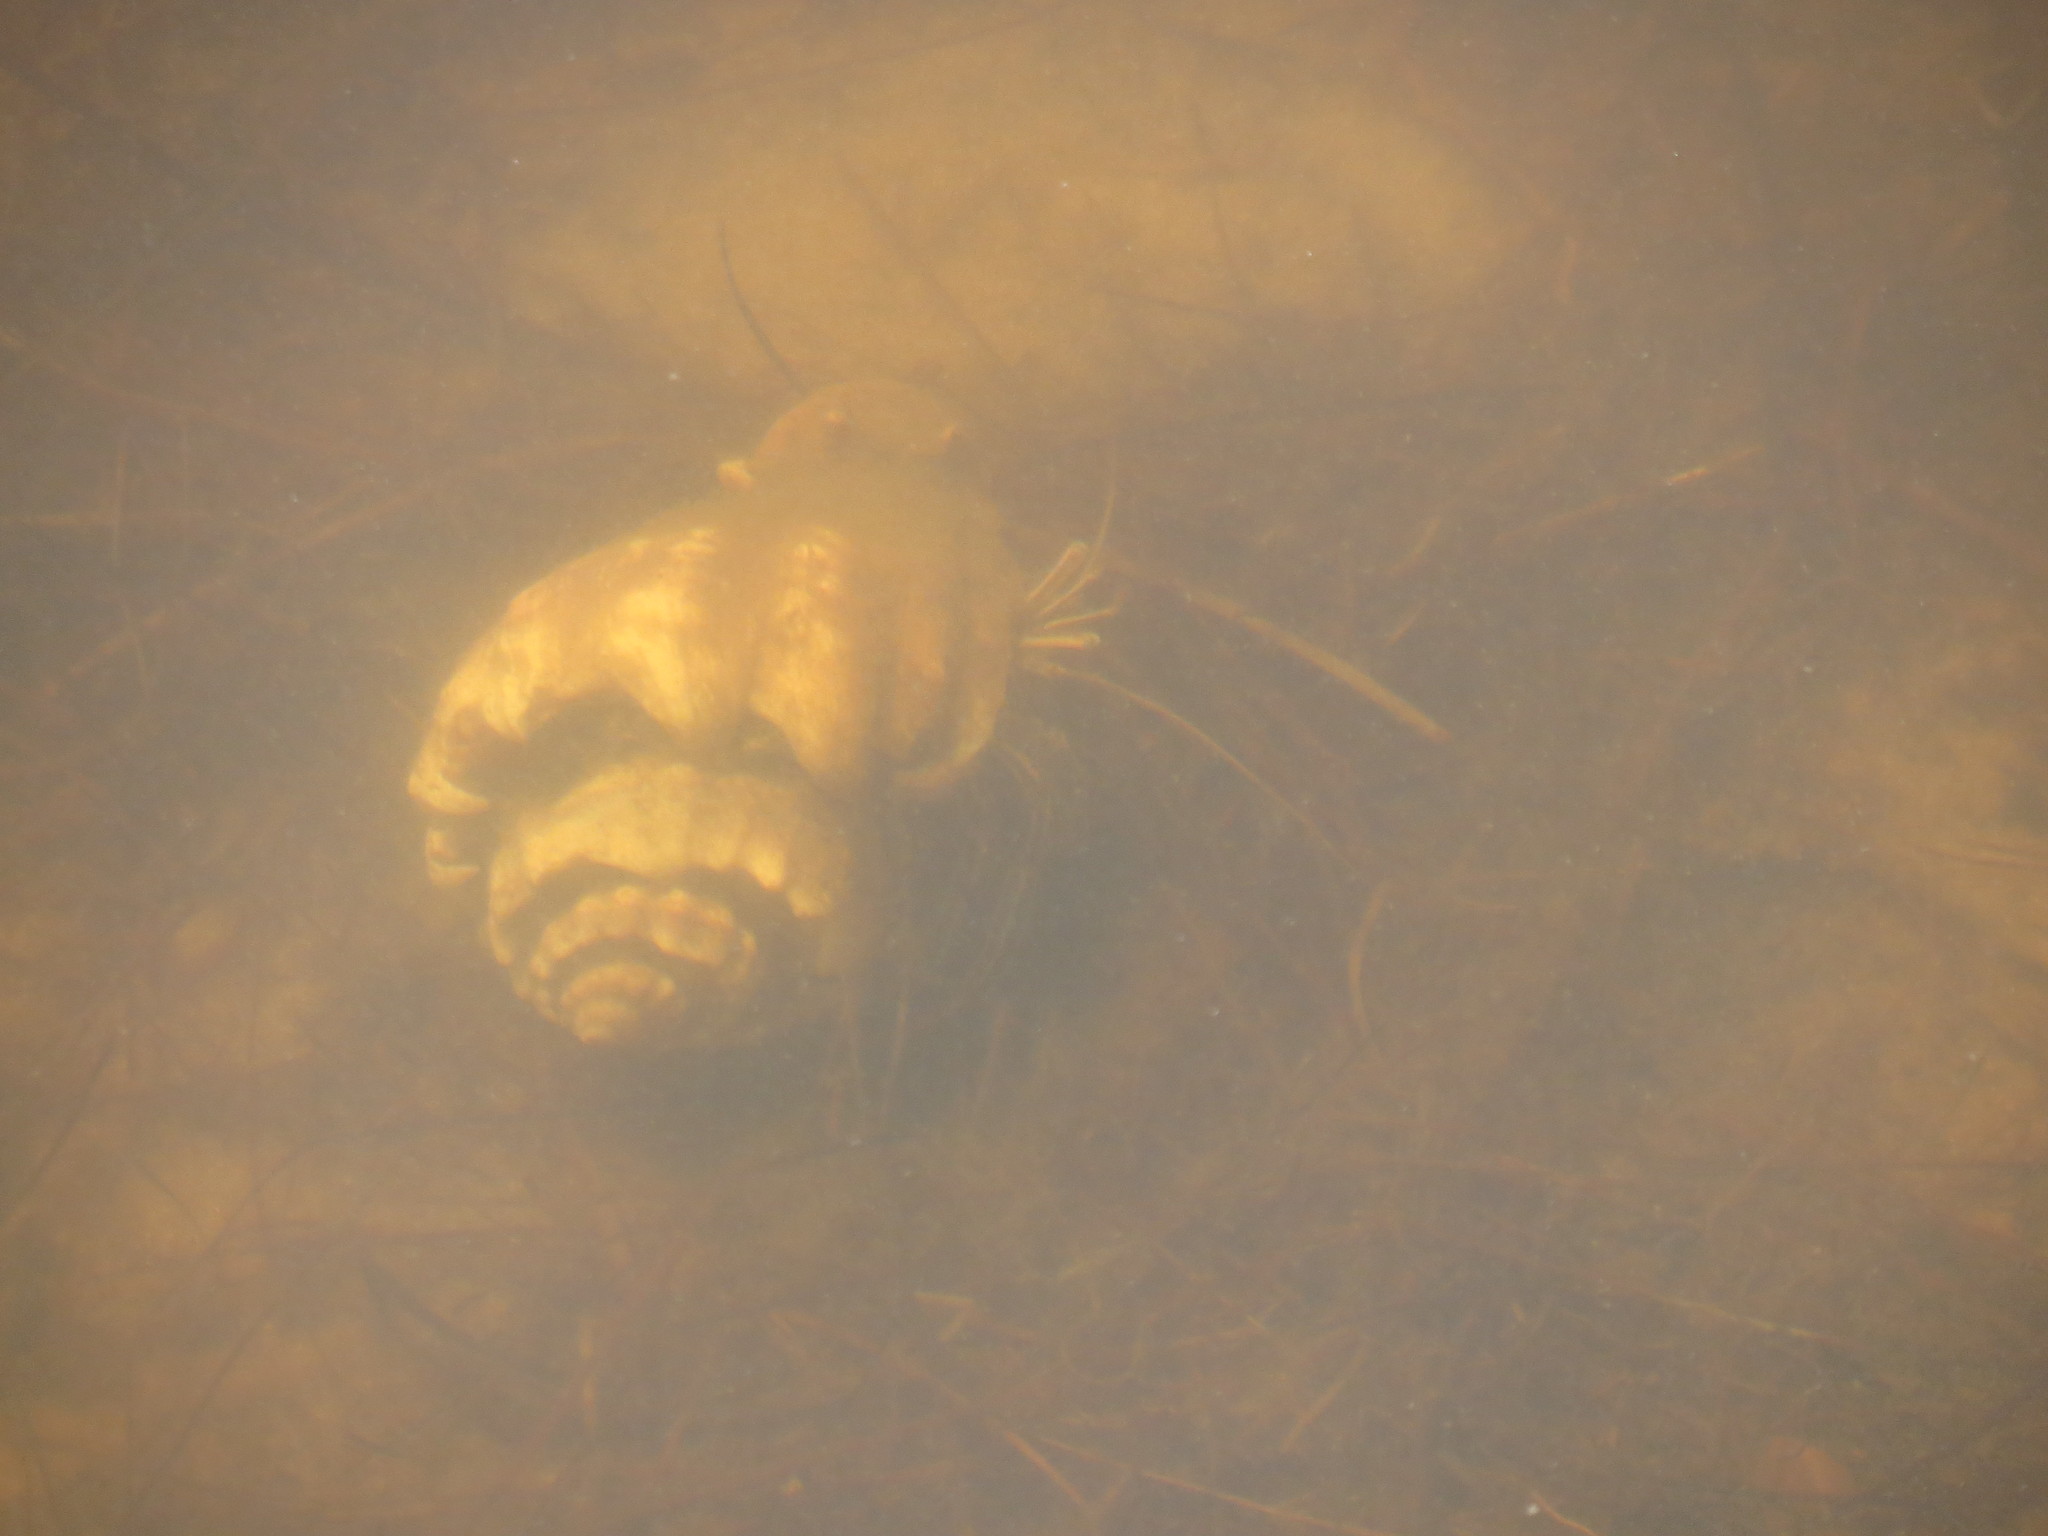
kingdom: Animalia
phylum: Arthropoda
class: Malacostraca
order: Decapoda
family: Diogenidae
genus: Clibanarius
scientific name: Clibanarius vittatus
